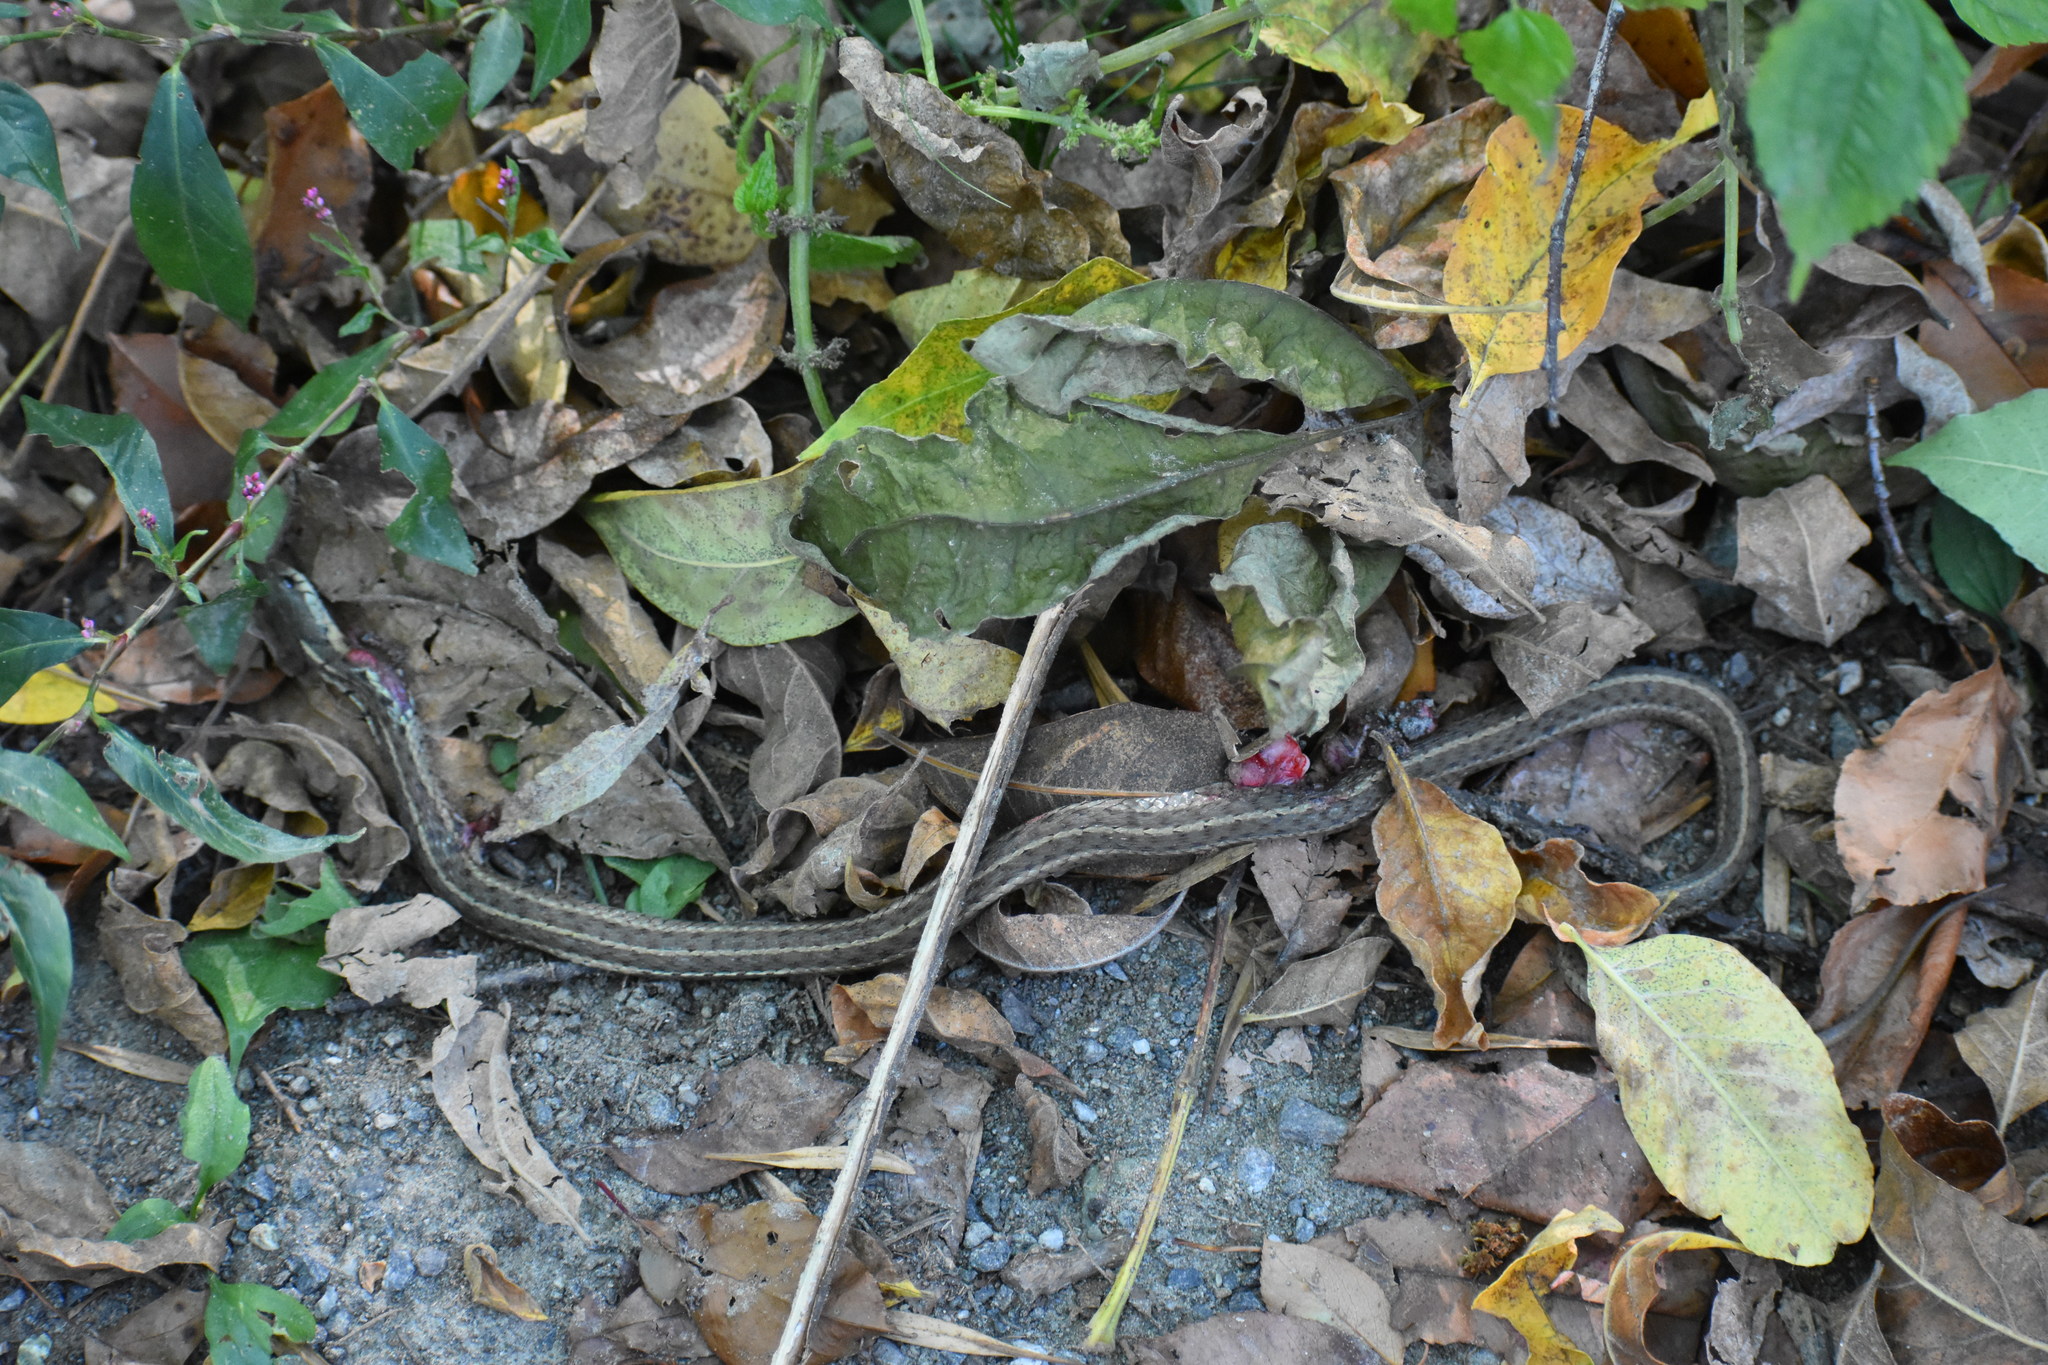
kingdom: Animalia
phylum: Chordata
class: Squamata
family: Colubridae
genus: Thamnophis
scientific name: Thamnophis sirtalis
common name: Common garter snake
